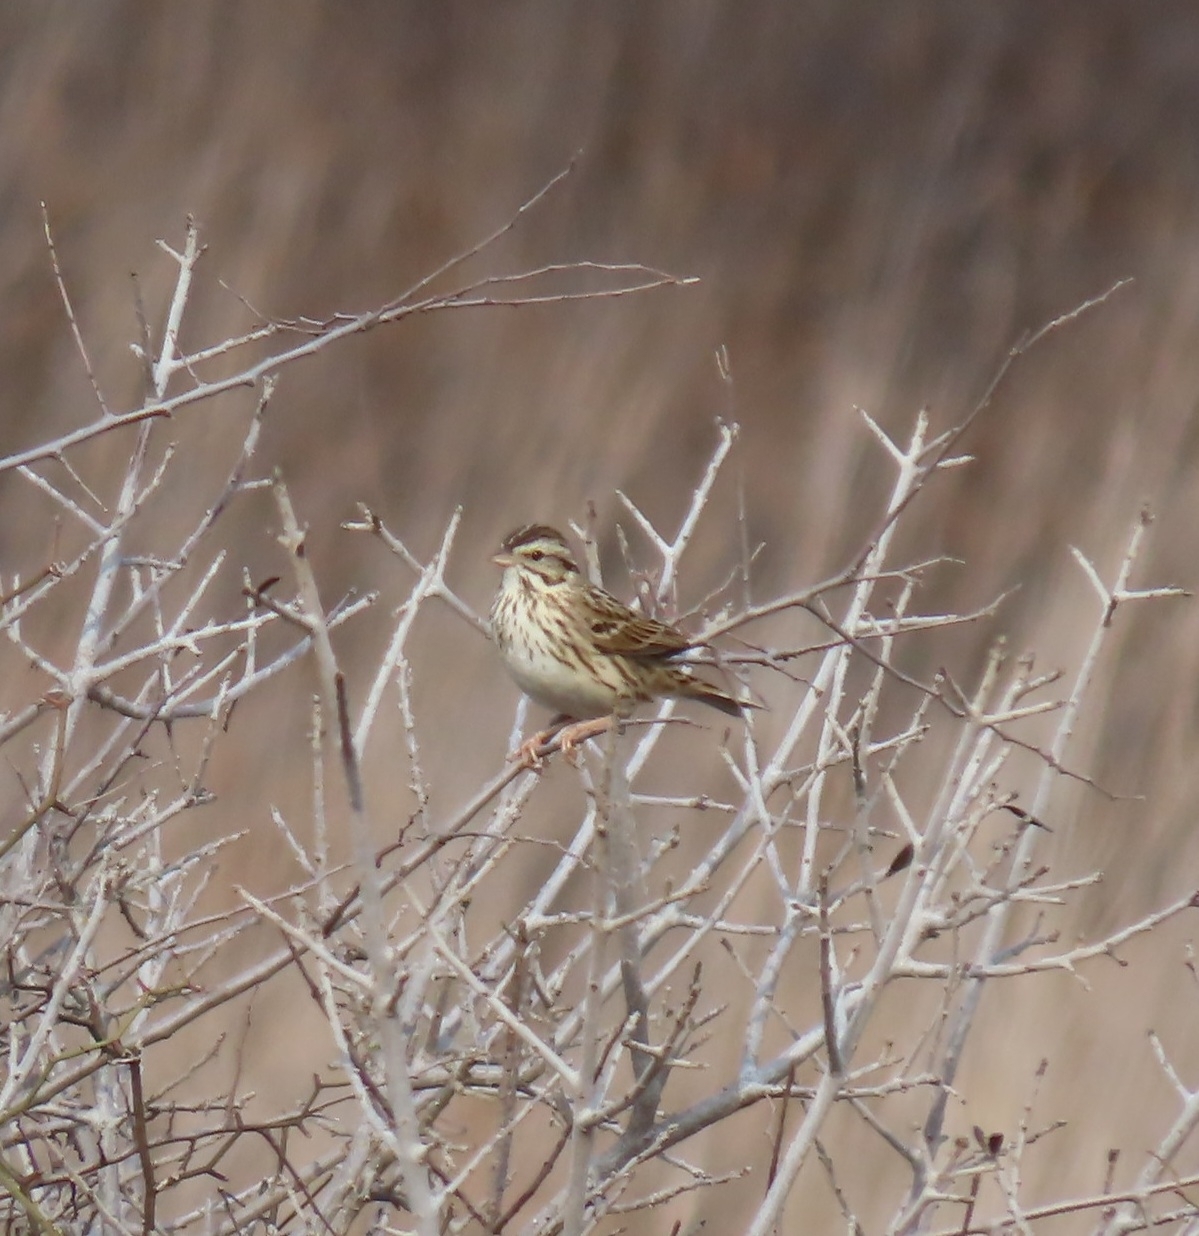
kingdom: Animalia
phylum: Chordata
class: Aves
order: Passeriformes
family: Passerellidae
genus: Passerculus
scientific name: Passerculus sandwichensis
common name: Savannah sparrow
